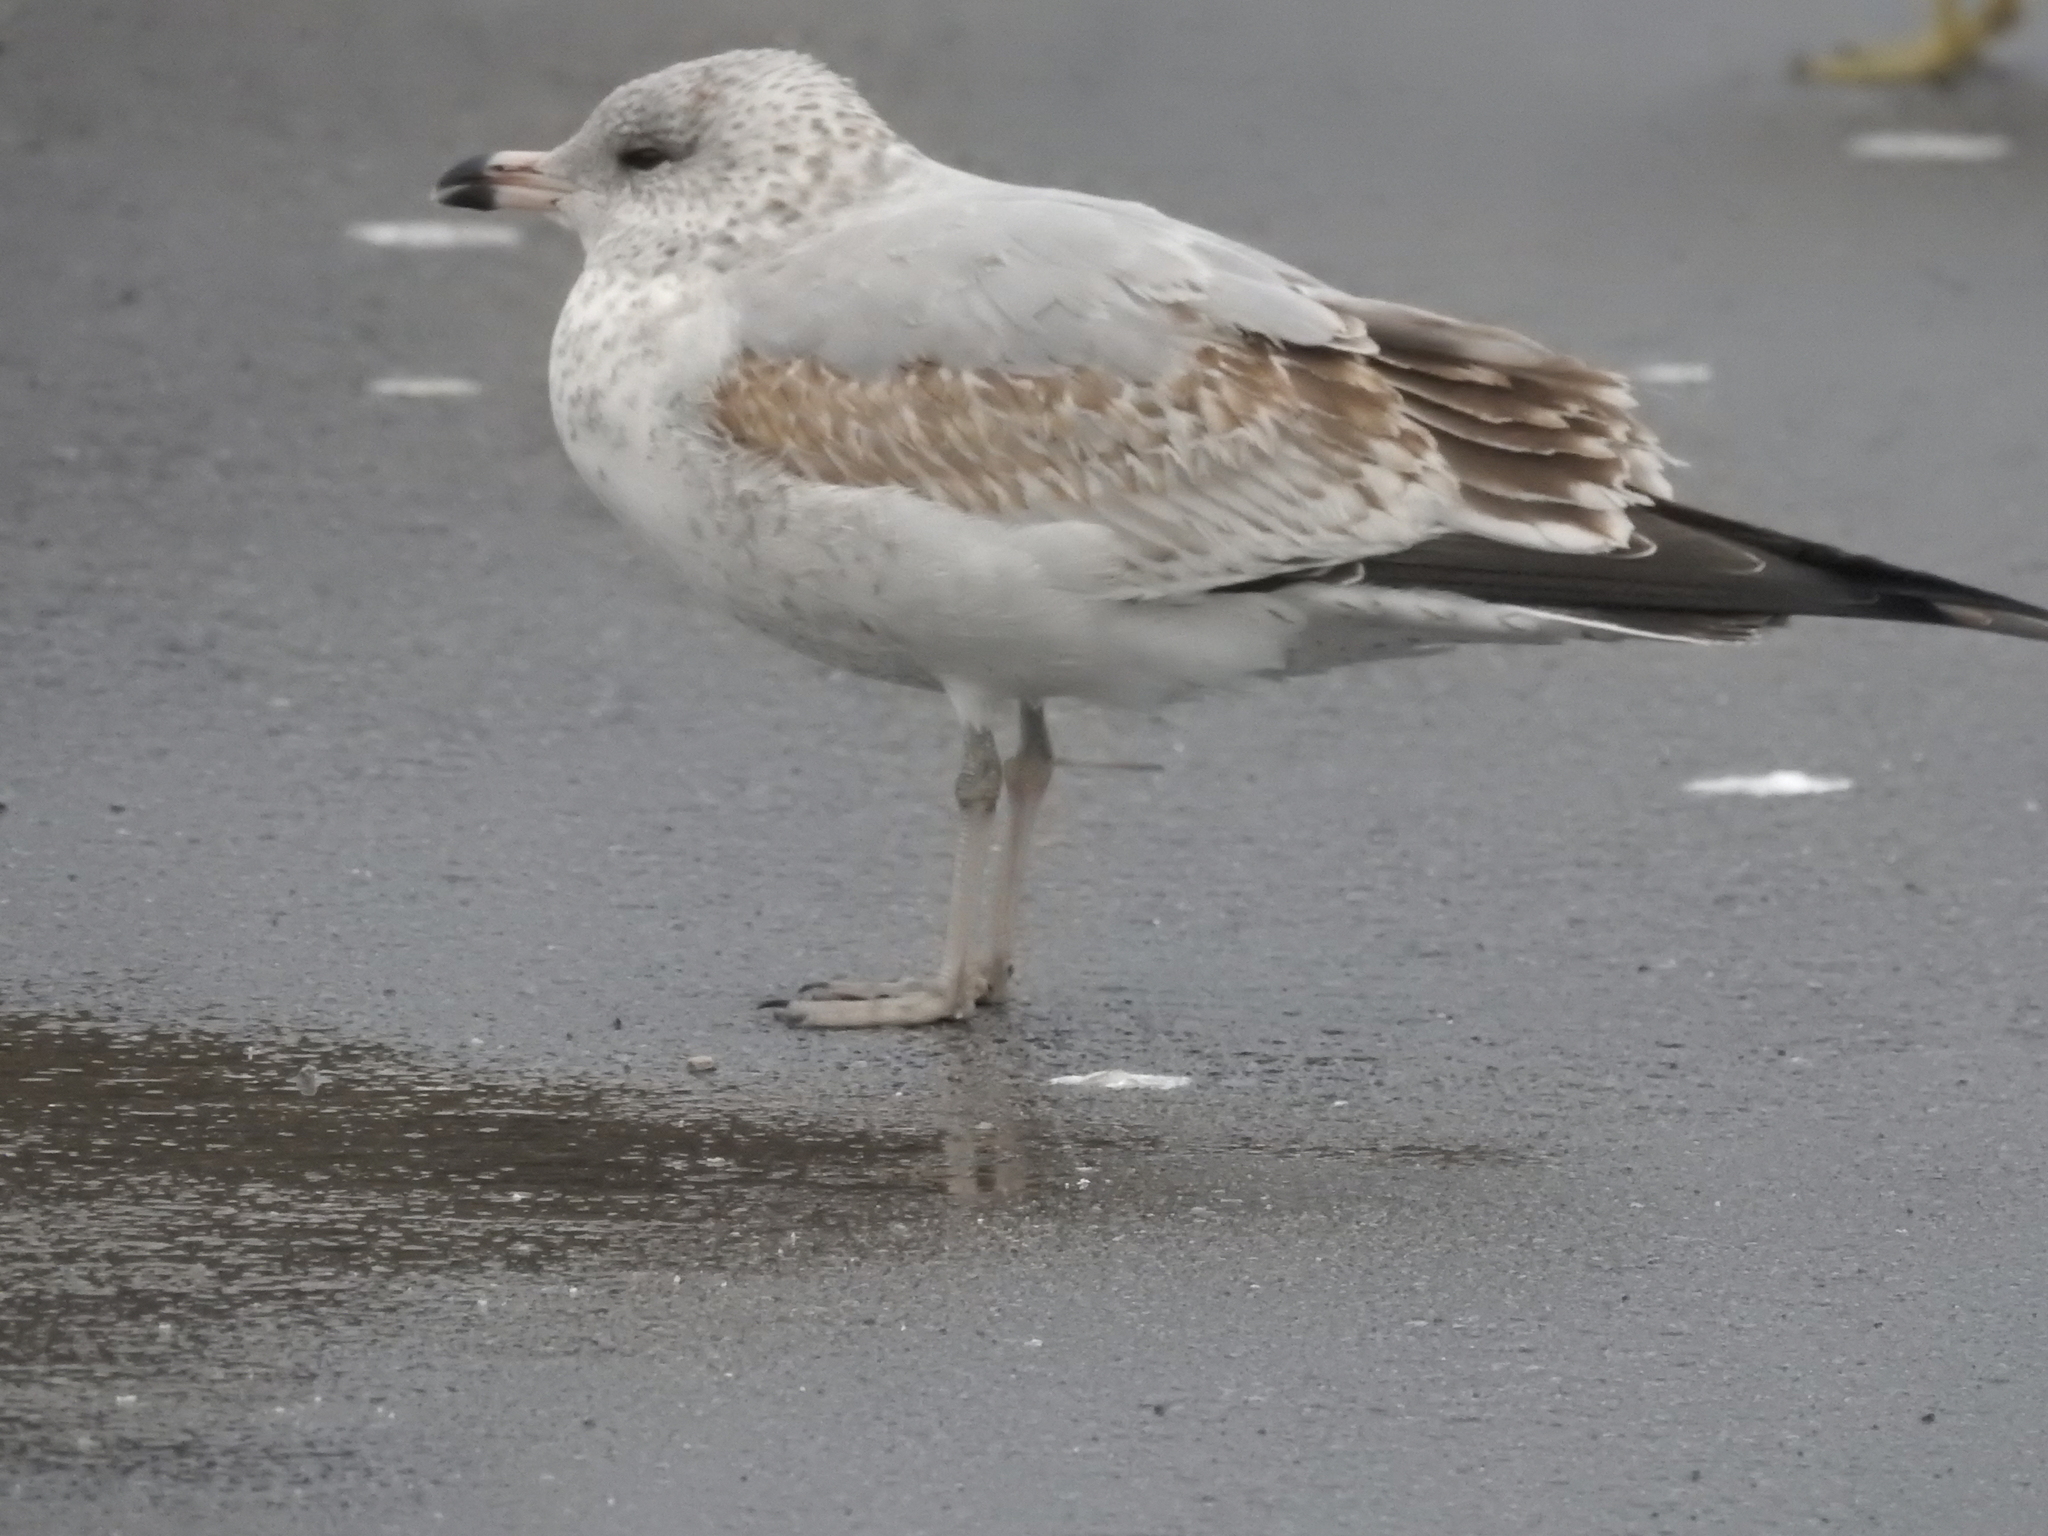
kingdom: Animalia
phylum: Chordata
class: Aves
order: Charadriiformes
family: Laridae
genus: Larus
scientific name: Larus delawarensis
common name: Ring-billed gull
